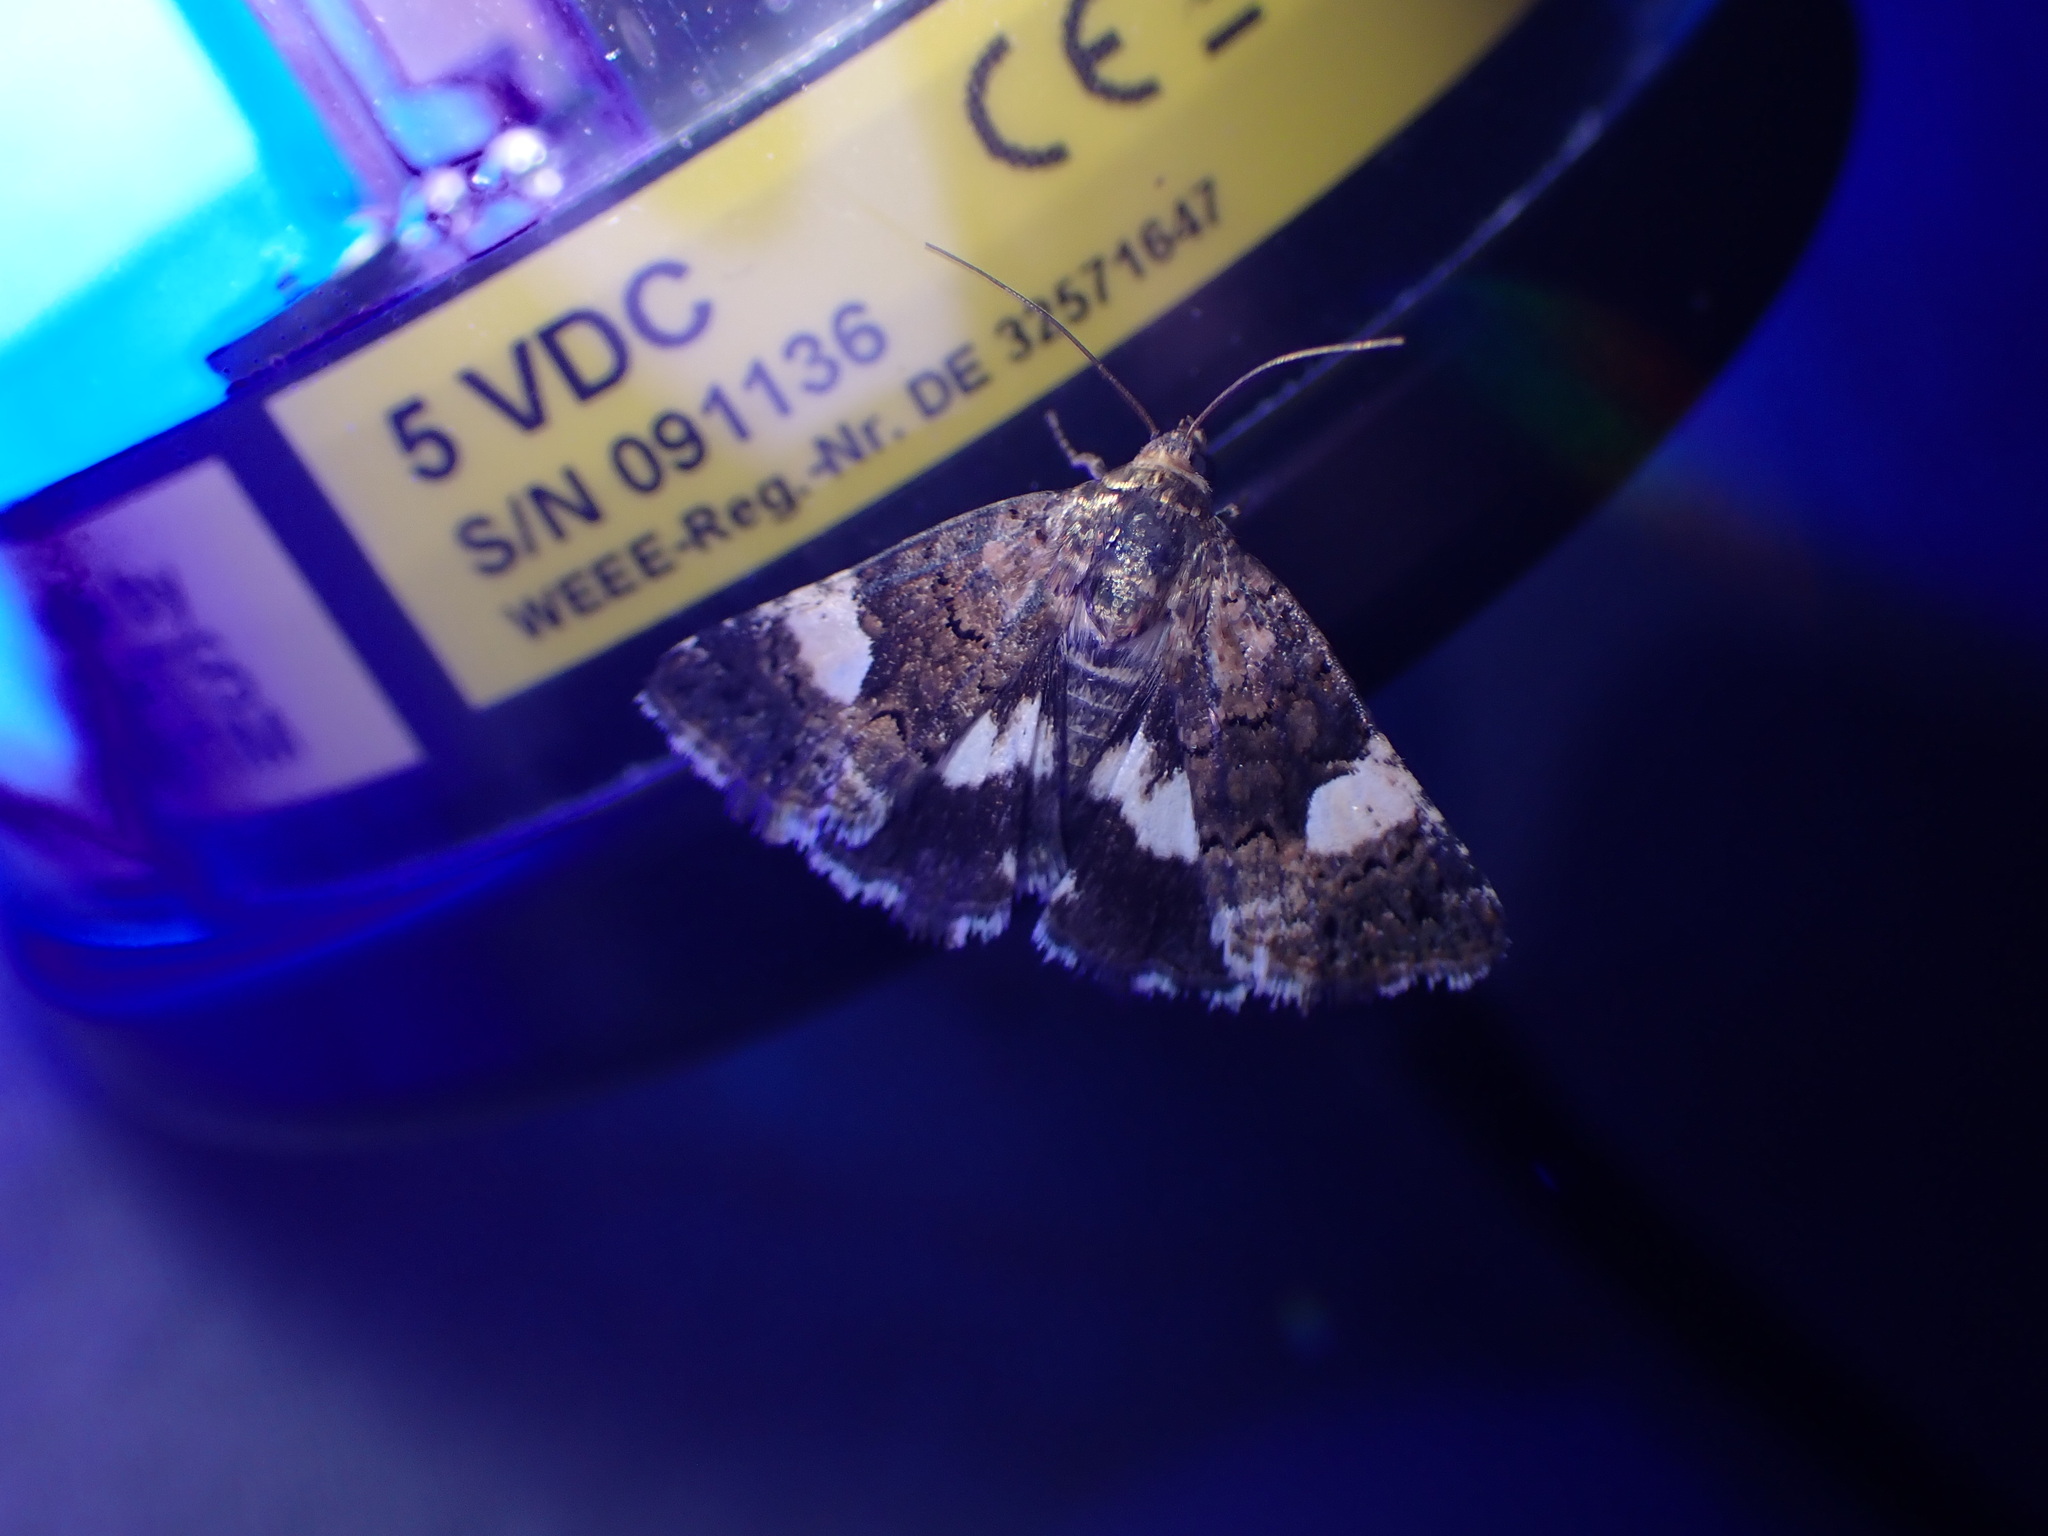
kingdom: Animalia
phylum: Arthropoda
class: Insecta
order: Lepidoptera
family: Erebidae
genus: Tyta
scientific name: Tyta luctuosa
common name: Four-spotted
